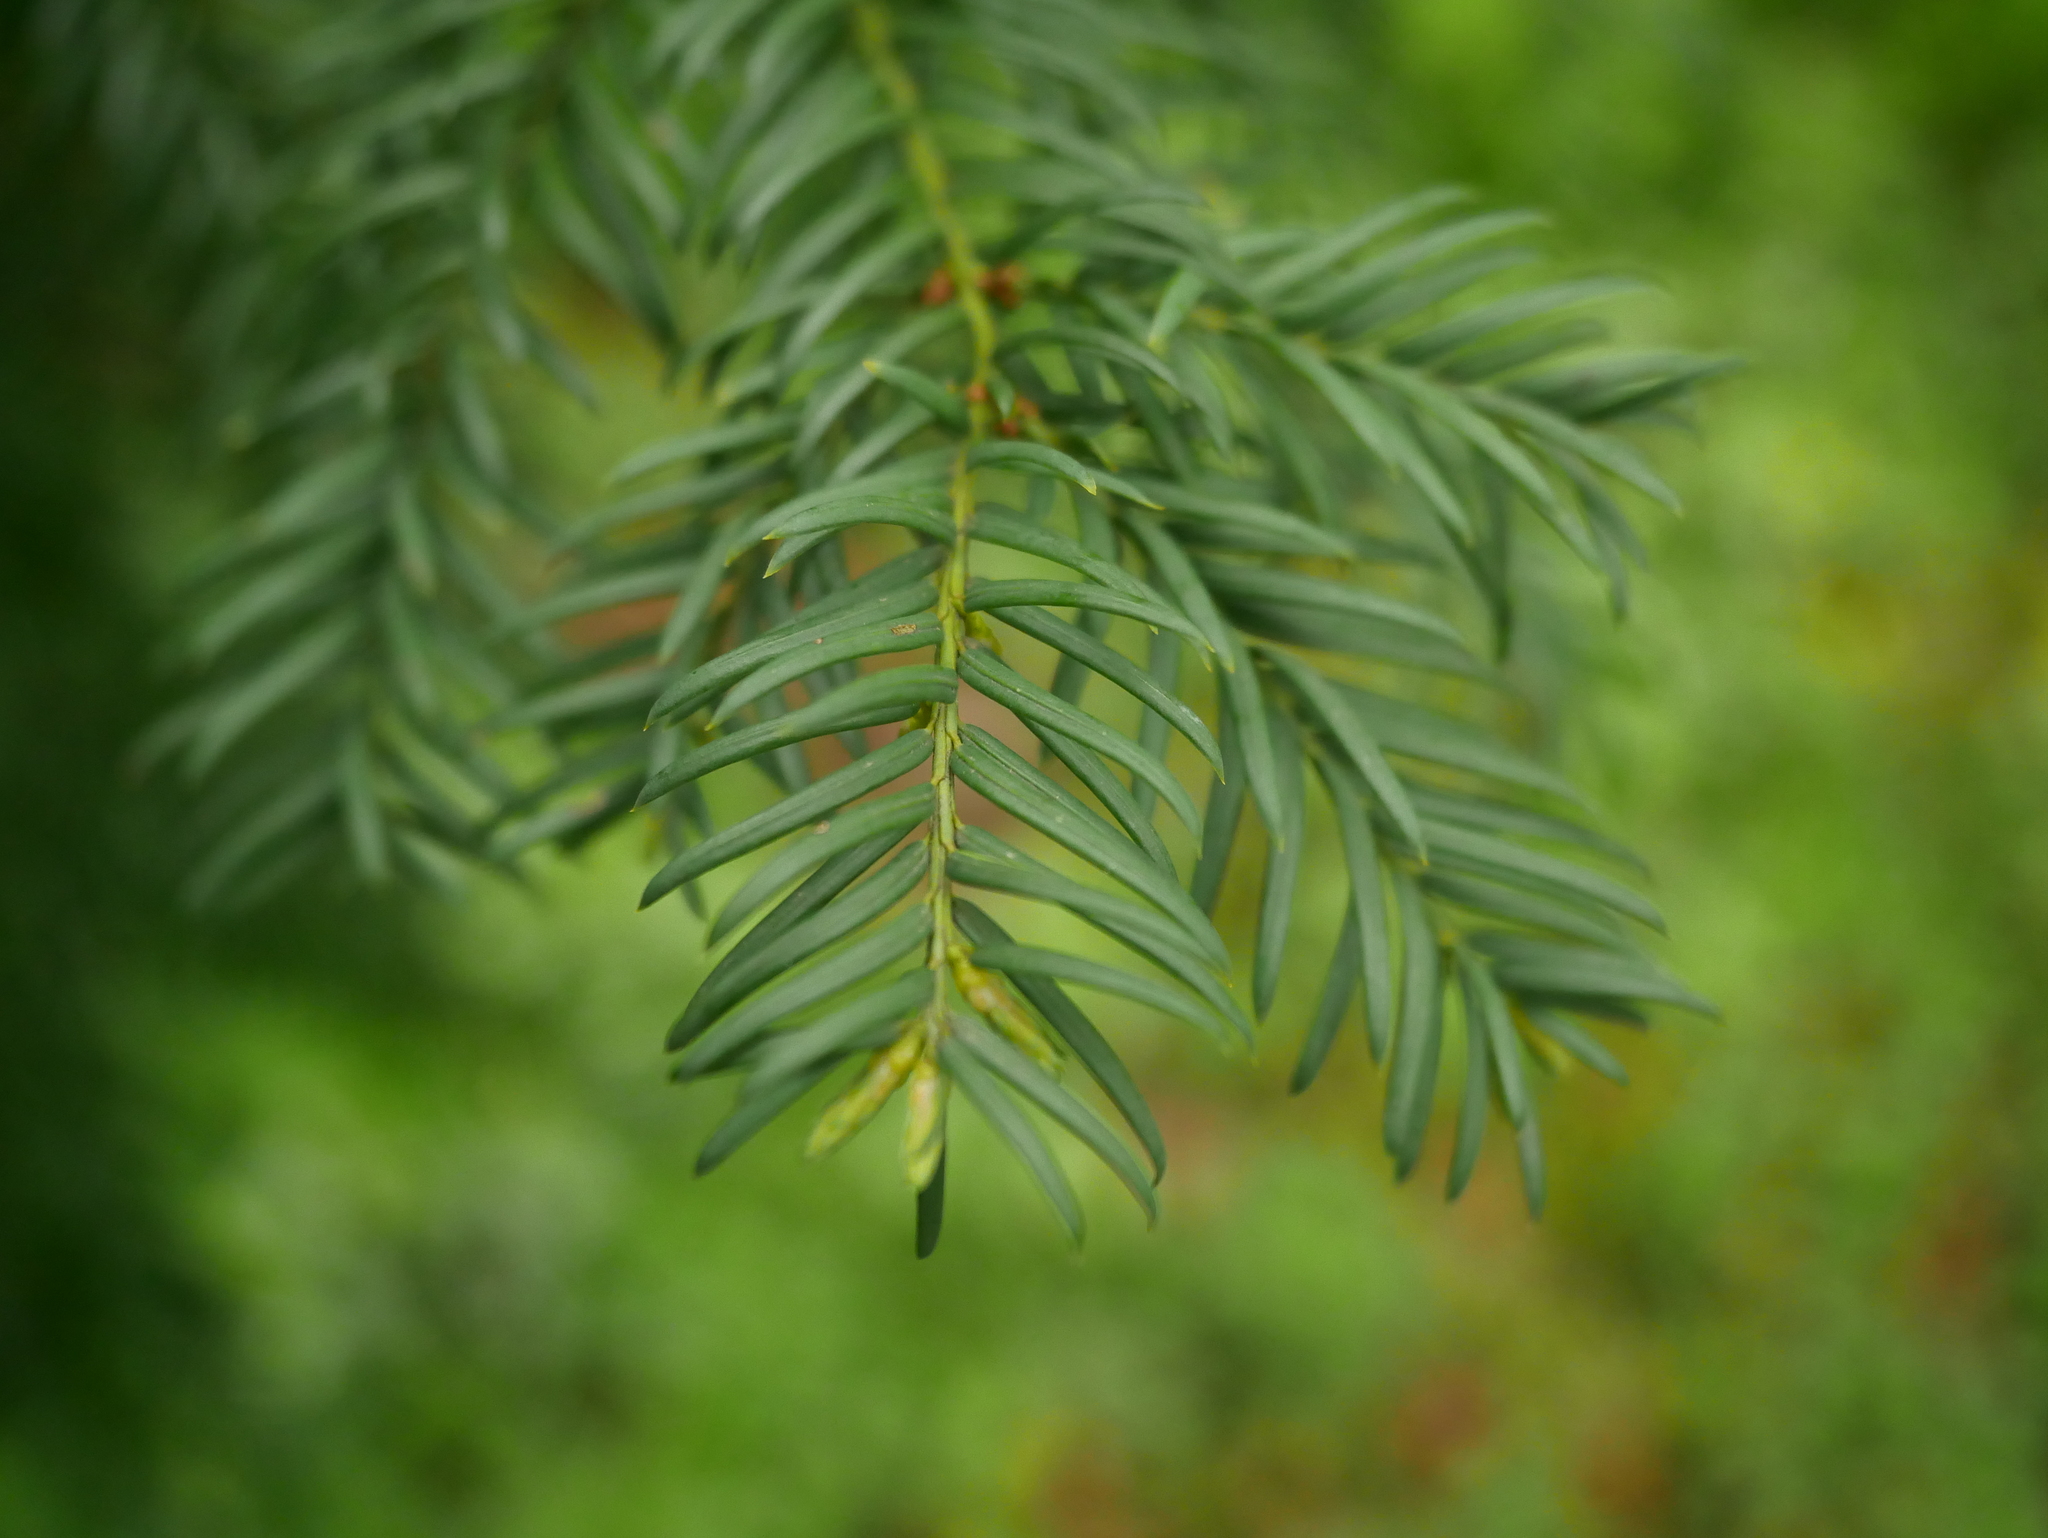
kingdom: Plantae
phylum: Tracheophyta
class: Pinopsida
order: Pinales
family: Taxaceae
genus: Taxus
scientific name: Taxus baccata
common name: Yew
